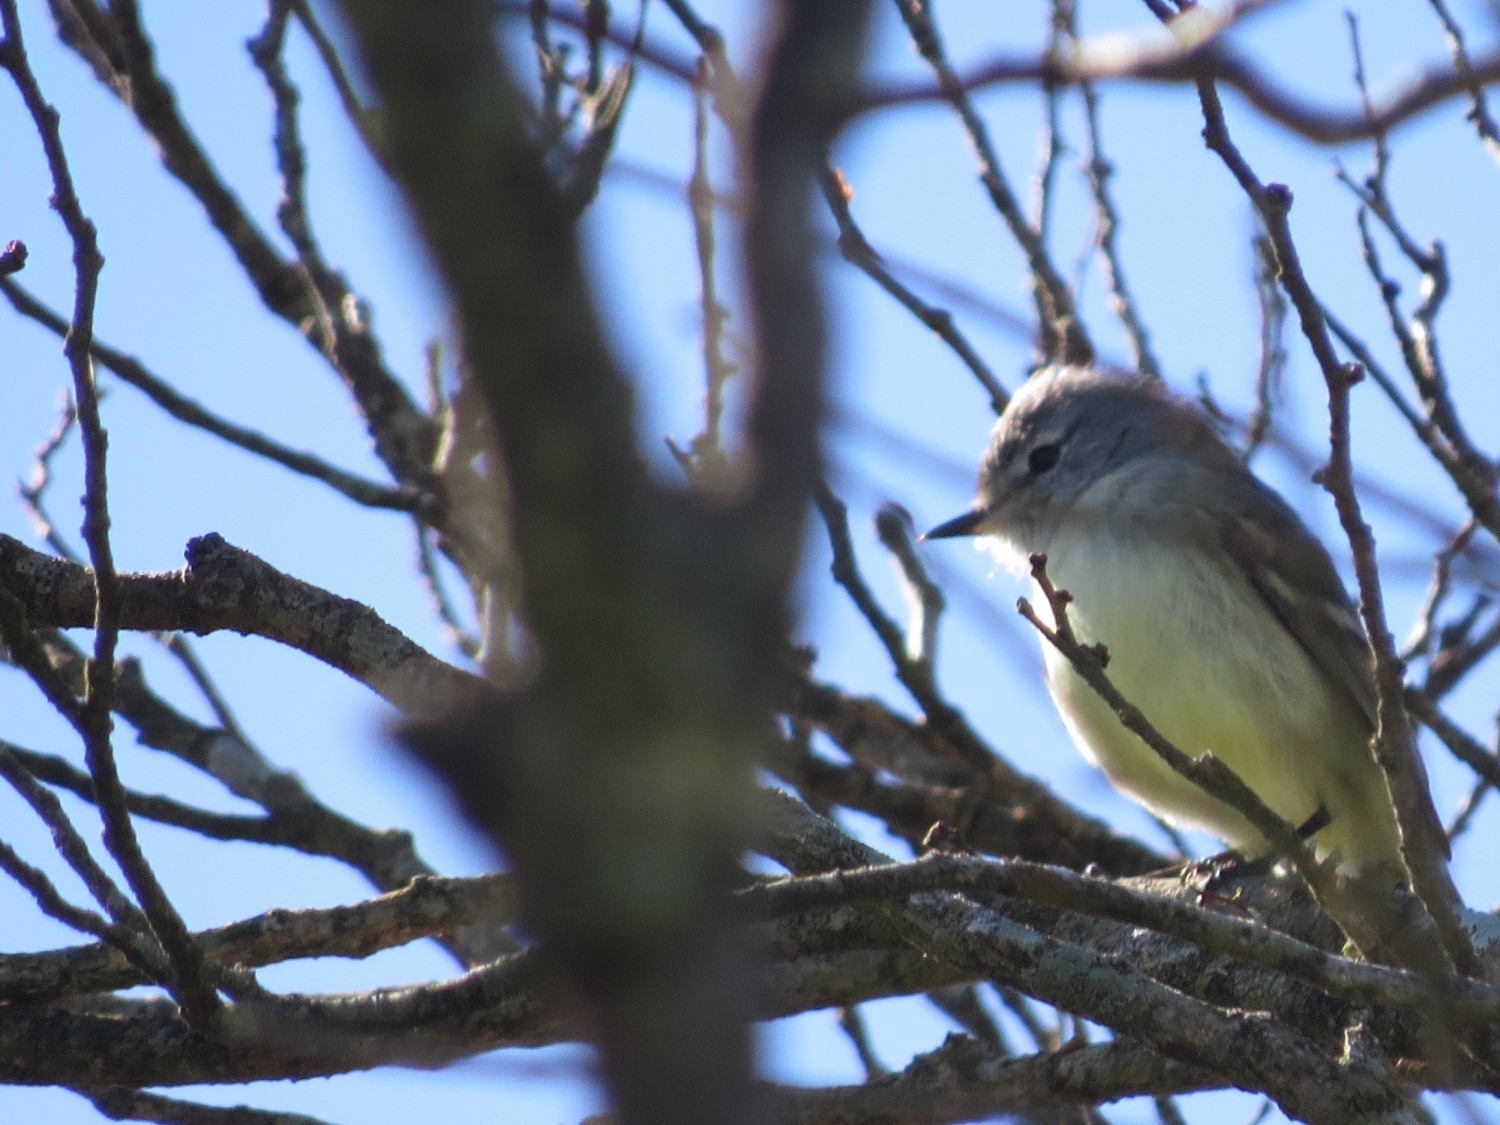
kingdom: Animalia
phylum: Chordata
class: Aves
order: Passeriformes
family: Tyrannidae
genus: Serpophaga
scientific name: Serpophaga griseicapilla
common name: Straneck's tyrannulet
